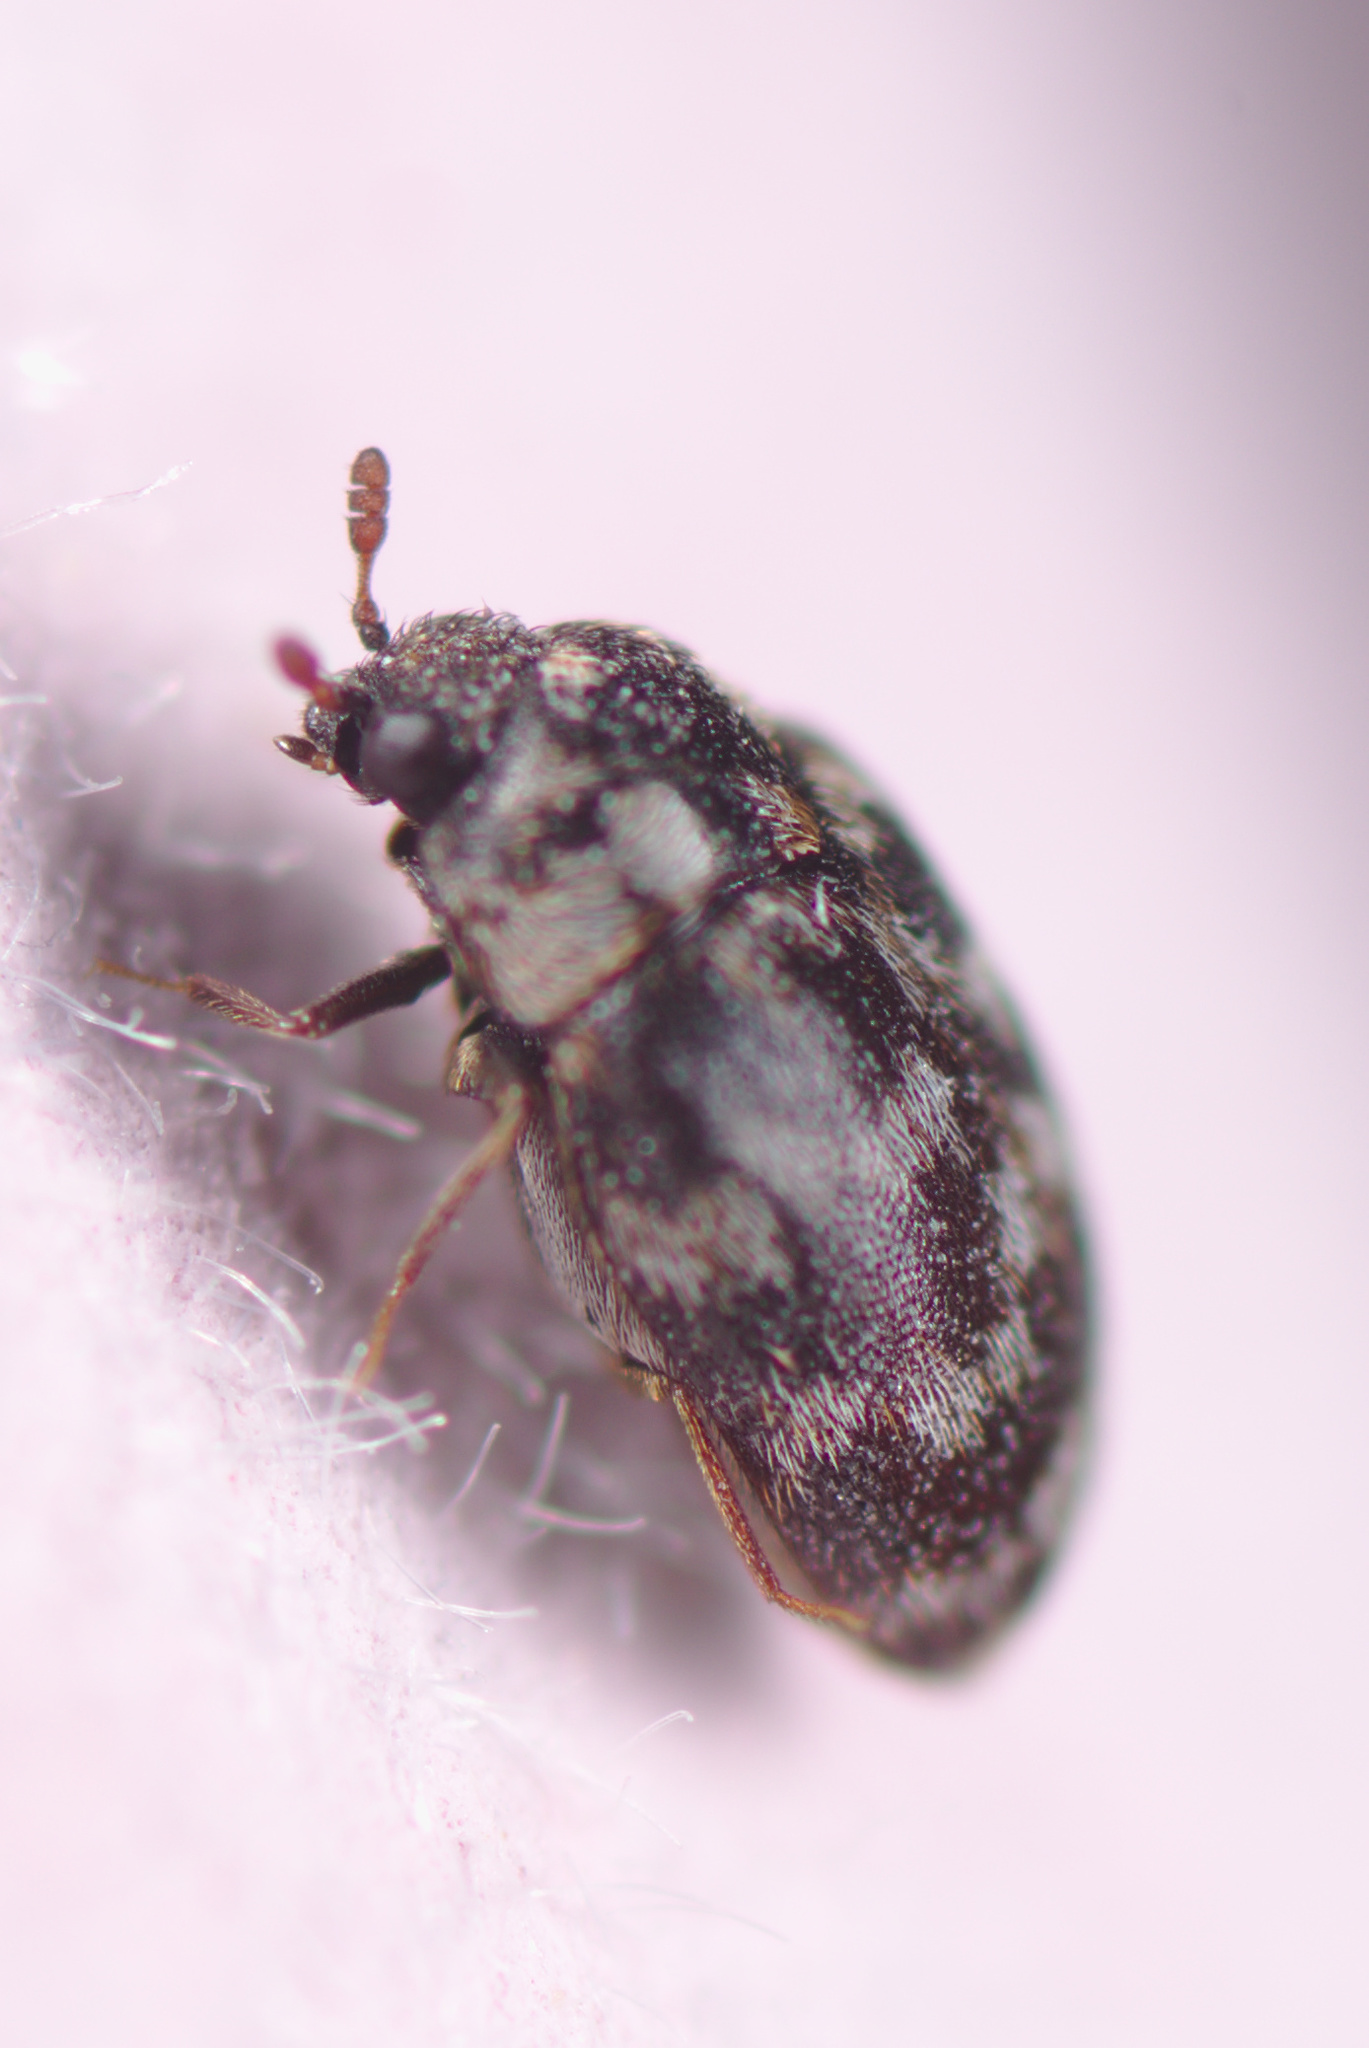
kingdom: Animalia
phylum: Arthropoda
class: Insecta
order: Coleoptera
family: Dermestidae
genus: Anthrenocerus
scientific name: Anthrenocerus australis
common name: Australian carpet beetle
